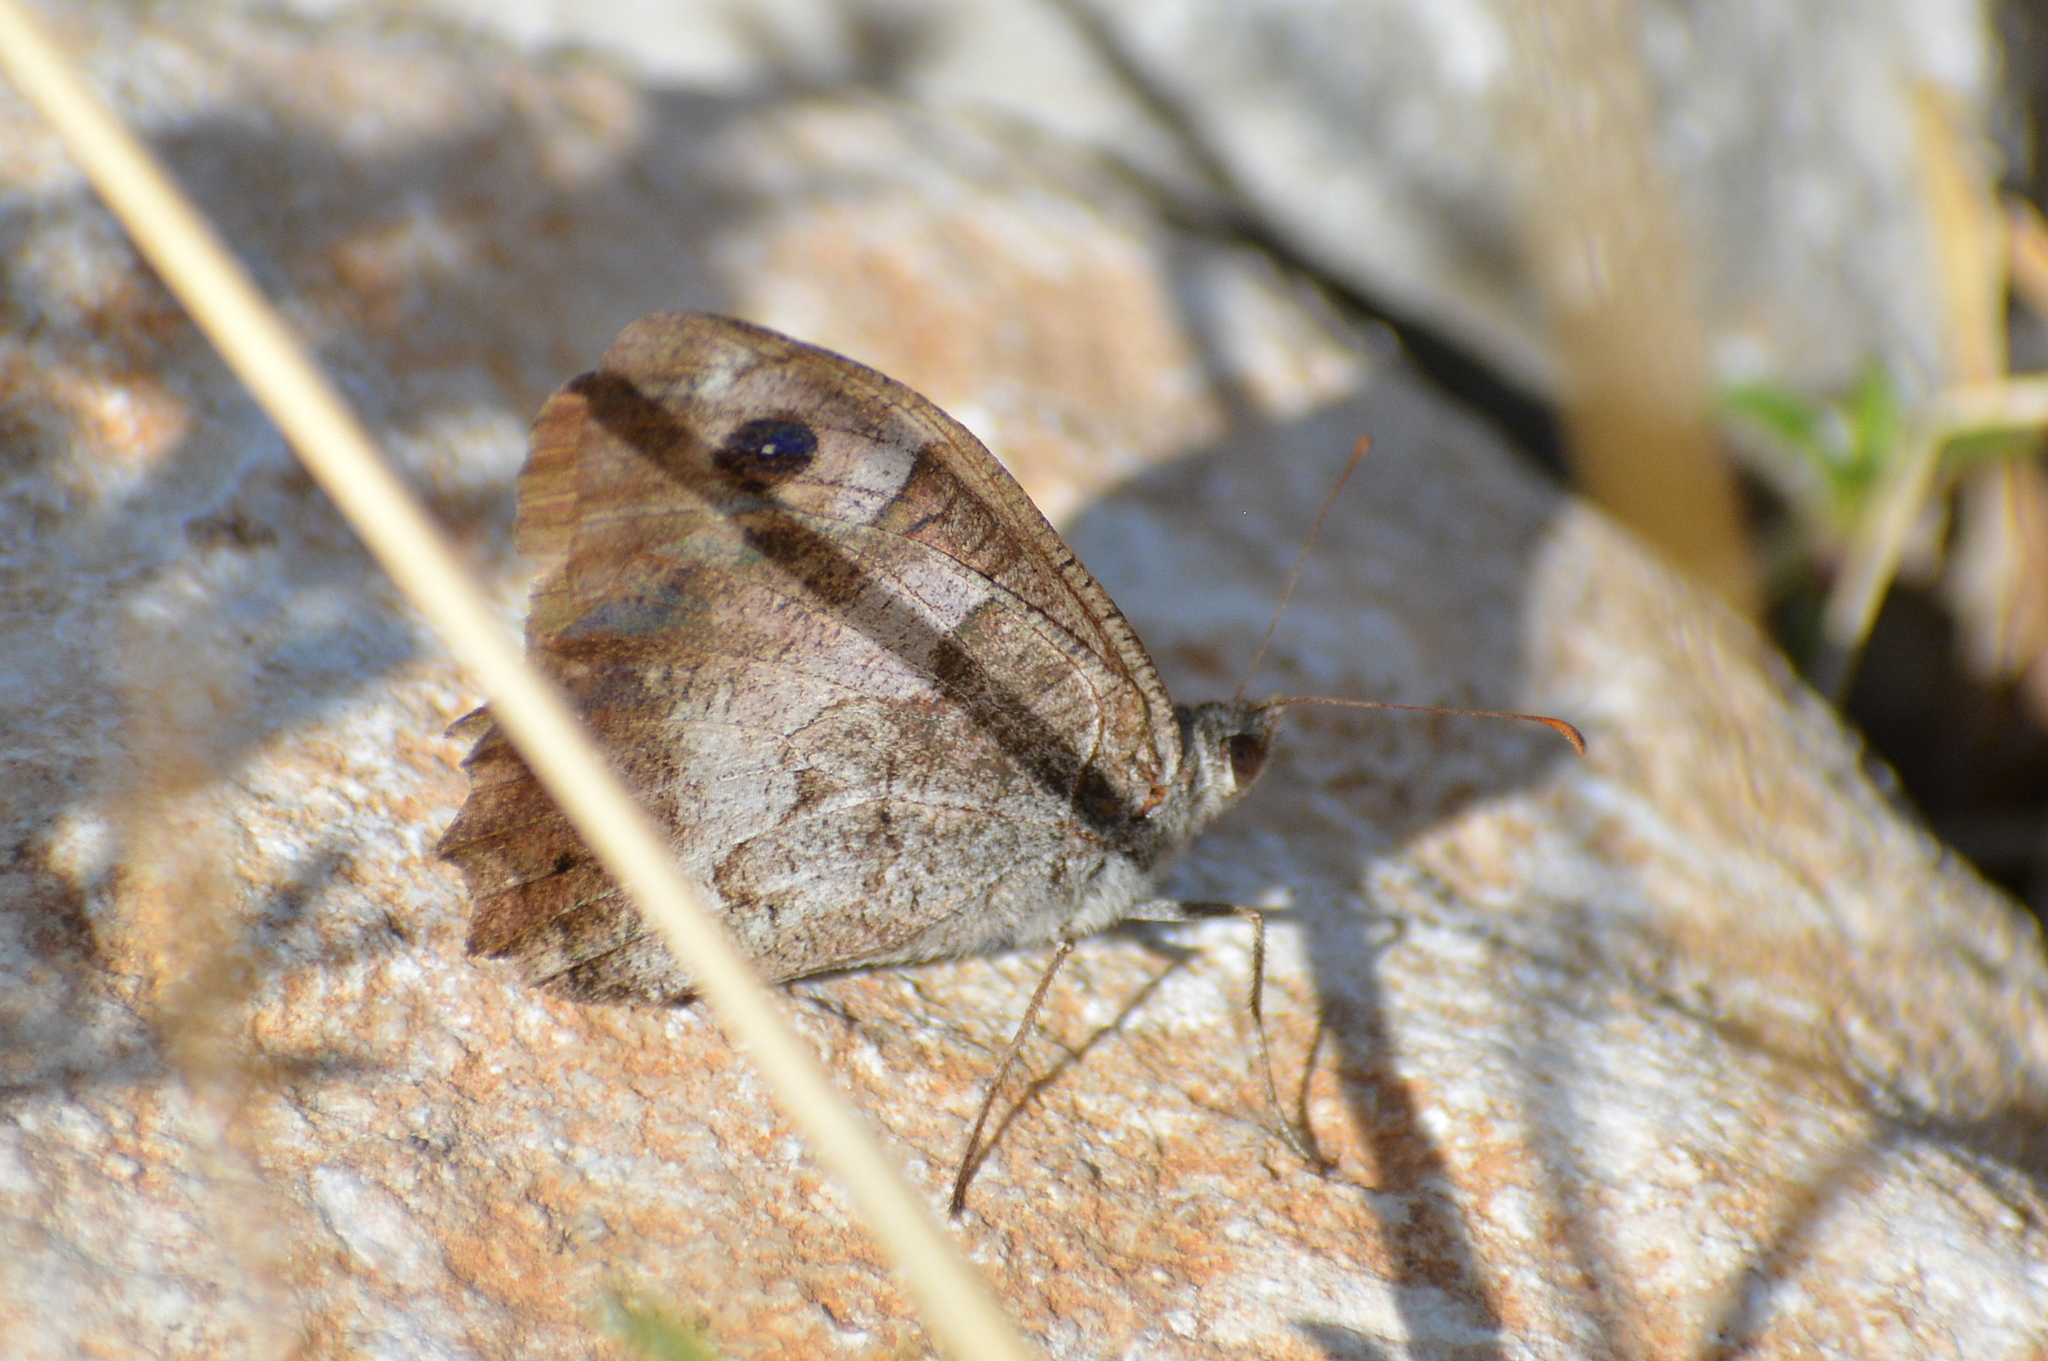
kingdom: Animalia
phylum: Arthropoda
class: Insecta
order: Lepidoptera
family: Nymphalidae
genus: Hipparchia
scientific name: Hipparchia statilinus
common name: Tree grayling
